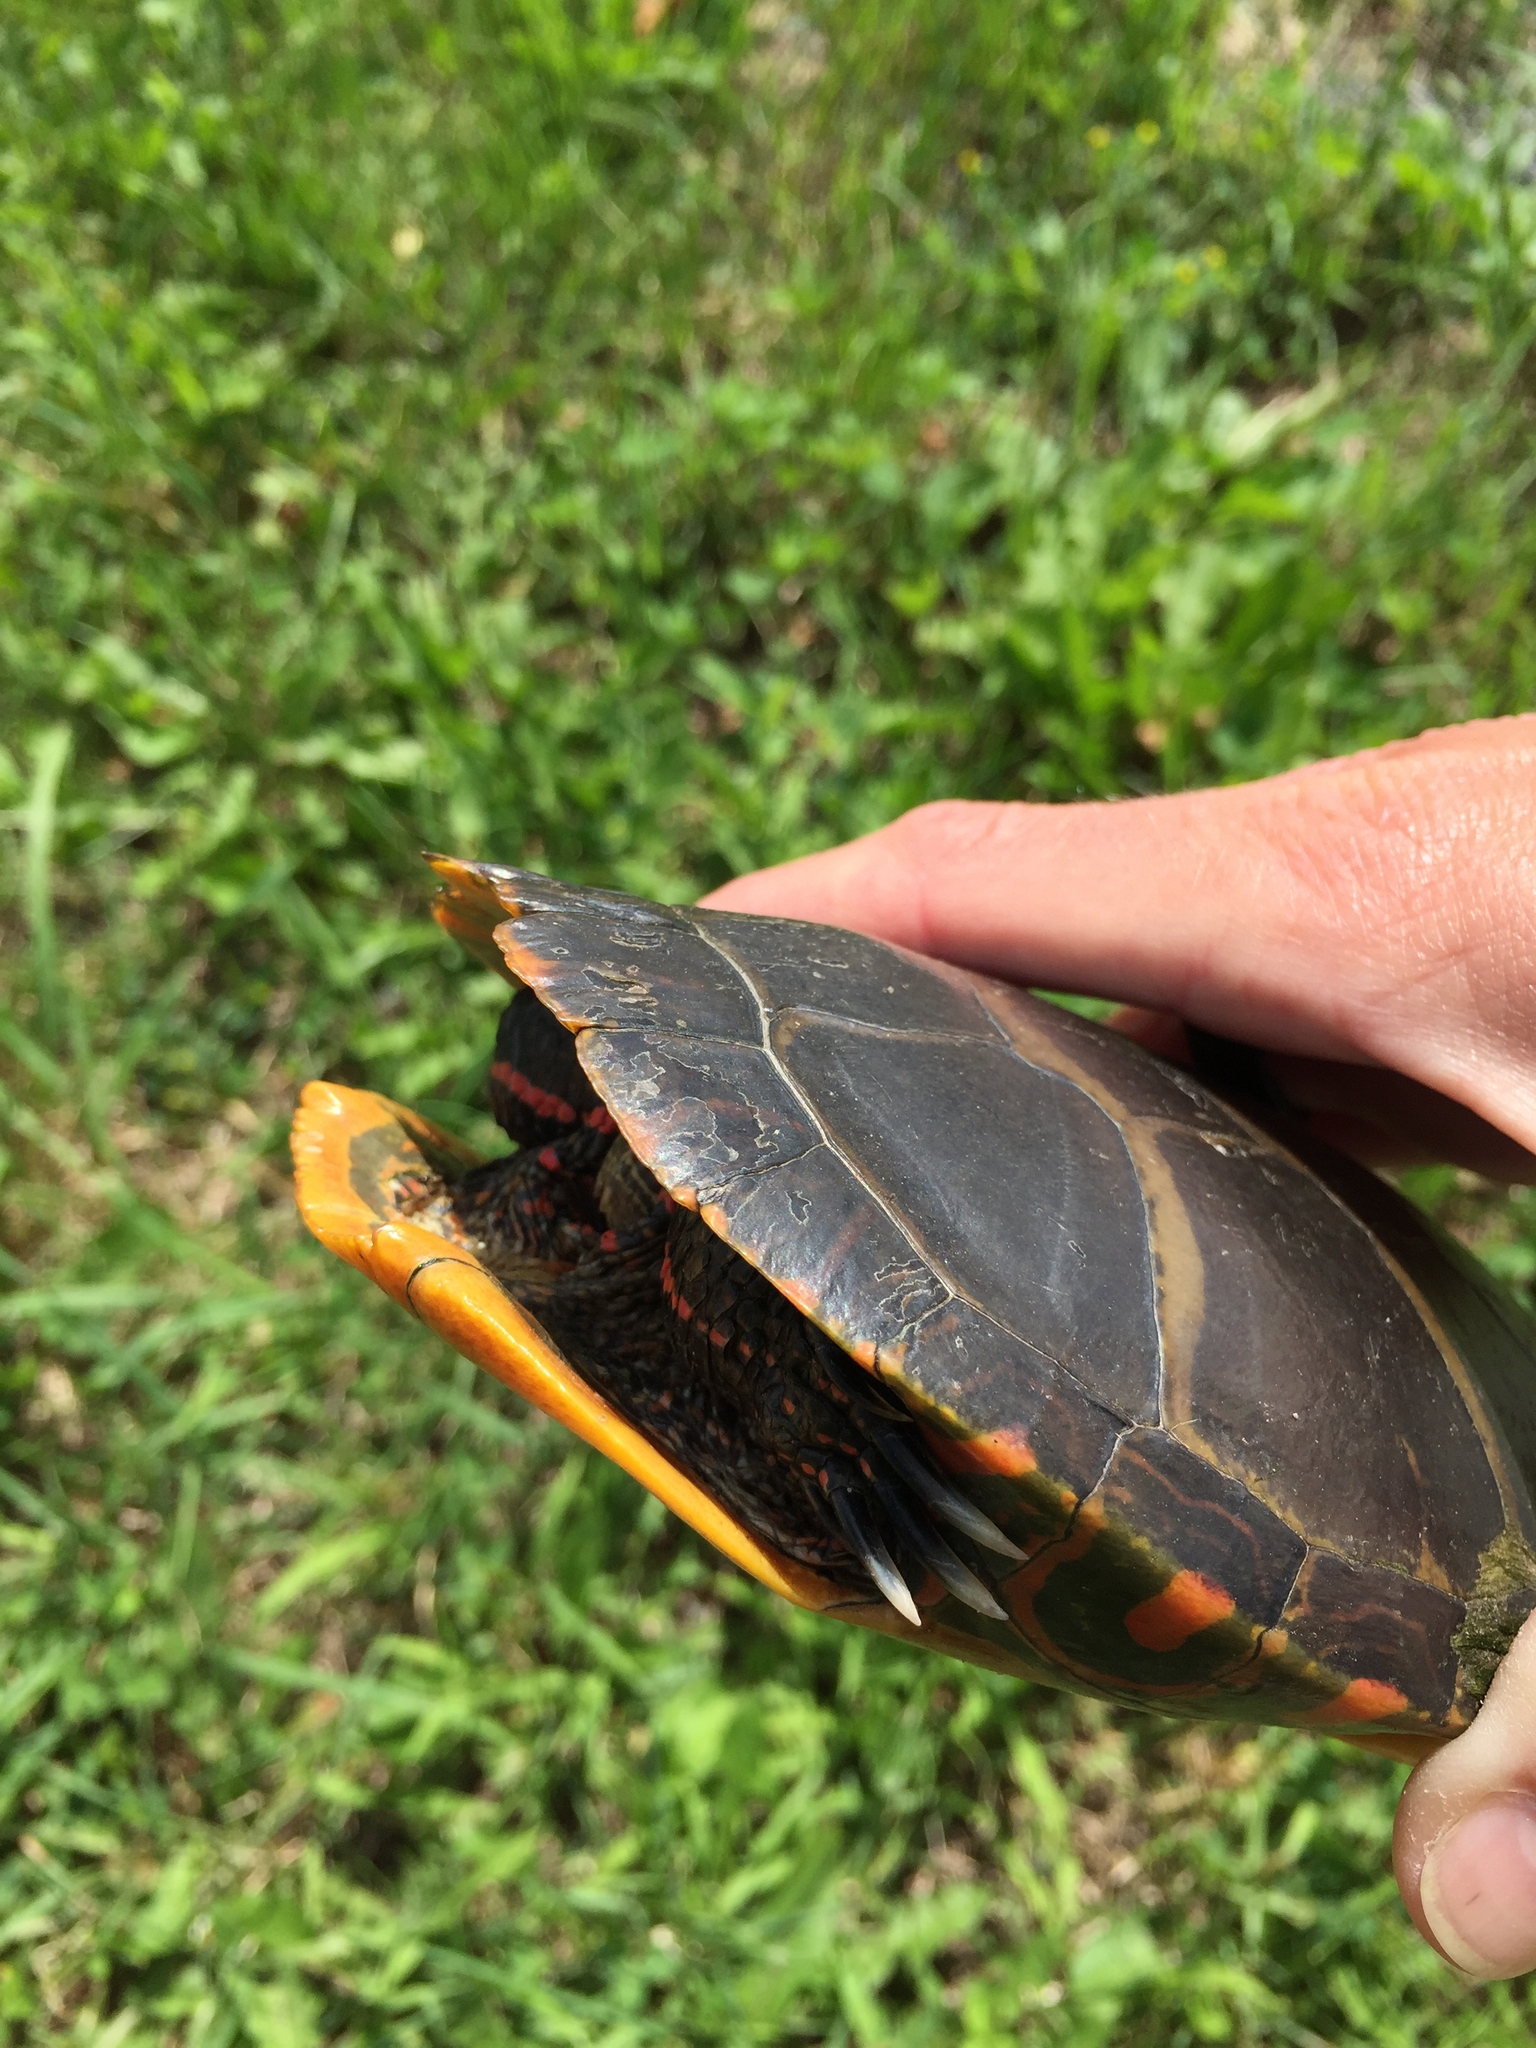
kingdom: Animalia
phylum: Chordata
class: Testudines
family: Emydidae
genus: Chrysemys
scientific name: Chrysemys picta
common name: Painted turtle
